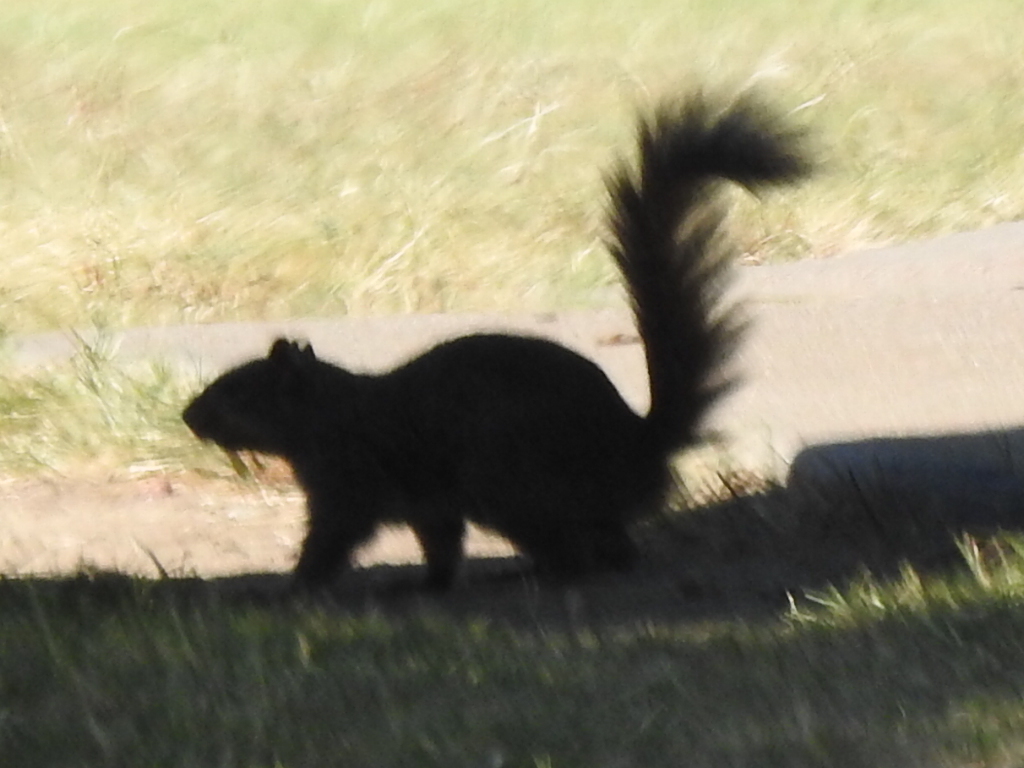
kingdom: Animalia
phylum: Chordata
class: Mammalia
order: Rodentia
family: Sciuridae
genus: Sciurus
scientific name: Sciurus niger
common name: Fox squirrel
